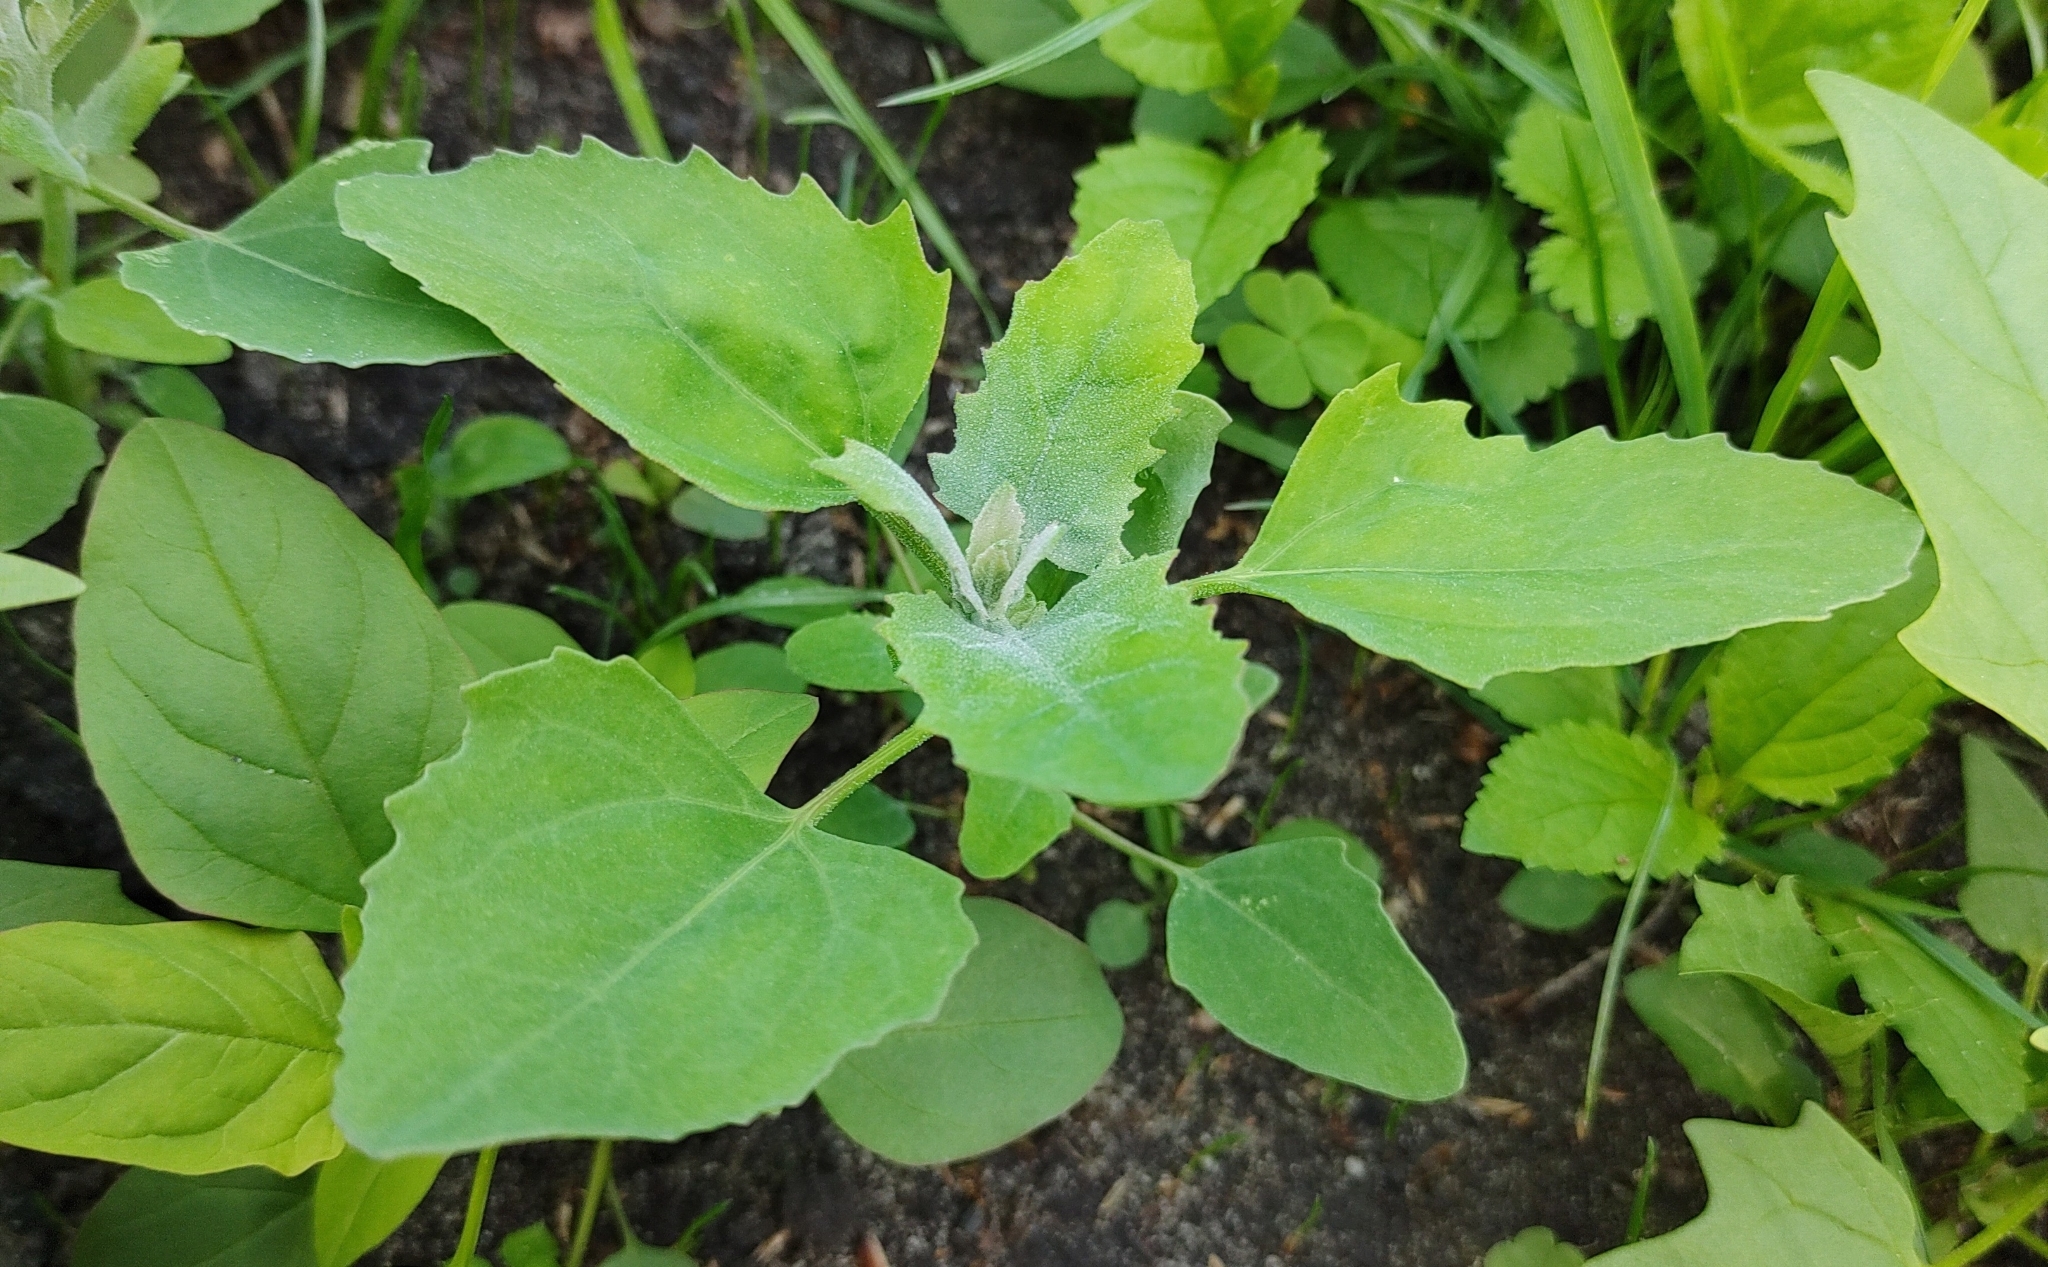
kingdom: Plantae
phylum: Tracheophyta
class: Magnoliopsida
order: Caryophyllales
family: Amaranthaceae
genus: Chenopodium
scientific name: Chenopodium album
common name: Fat-hen
